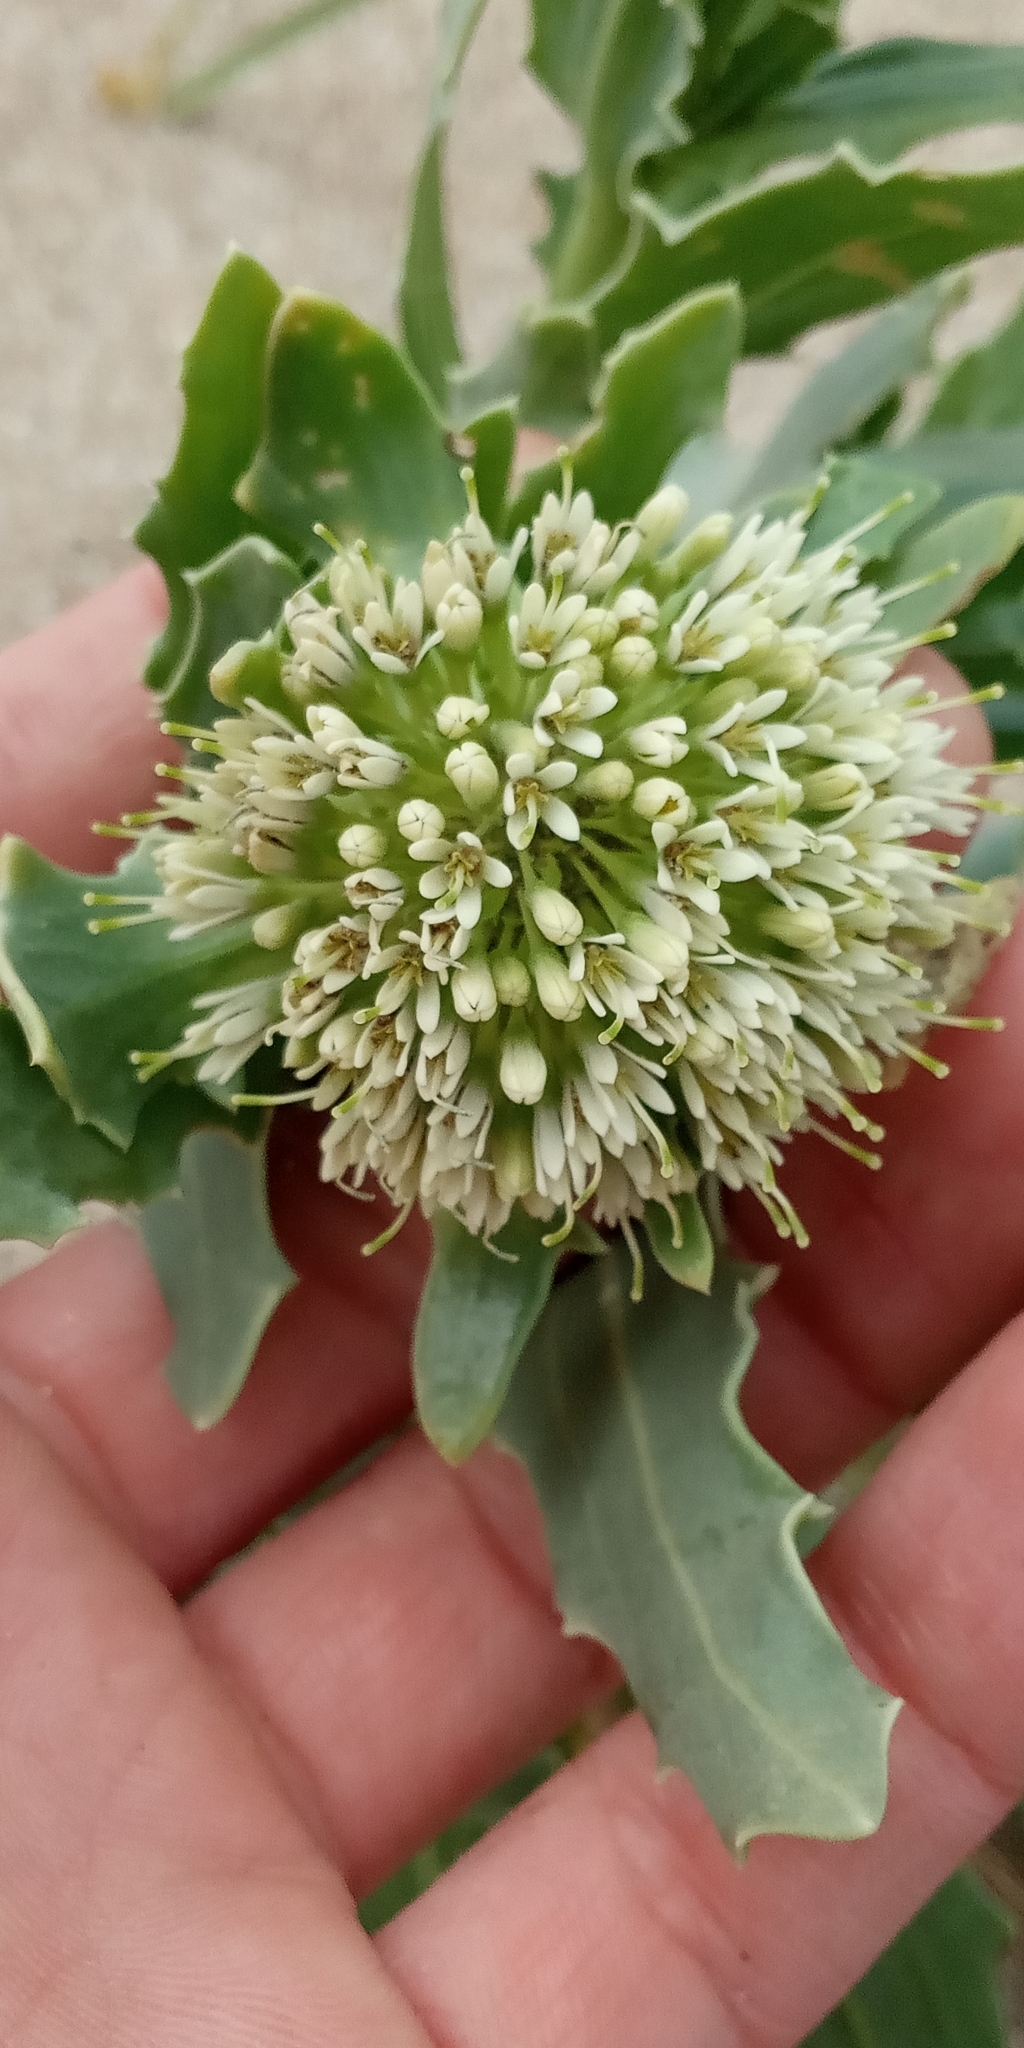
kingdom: Plantae
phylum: Tracheophyta
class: Magnoliopsida
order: Asterales
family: Calyceraceae
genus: Calycera
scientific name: Calycera crassifolia
